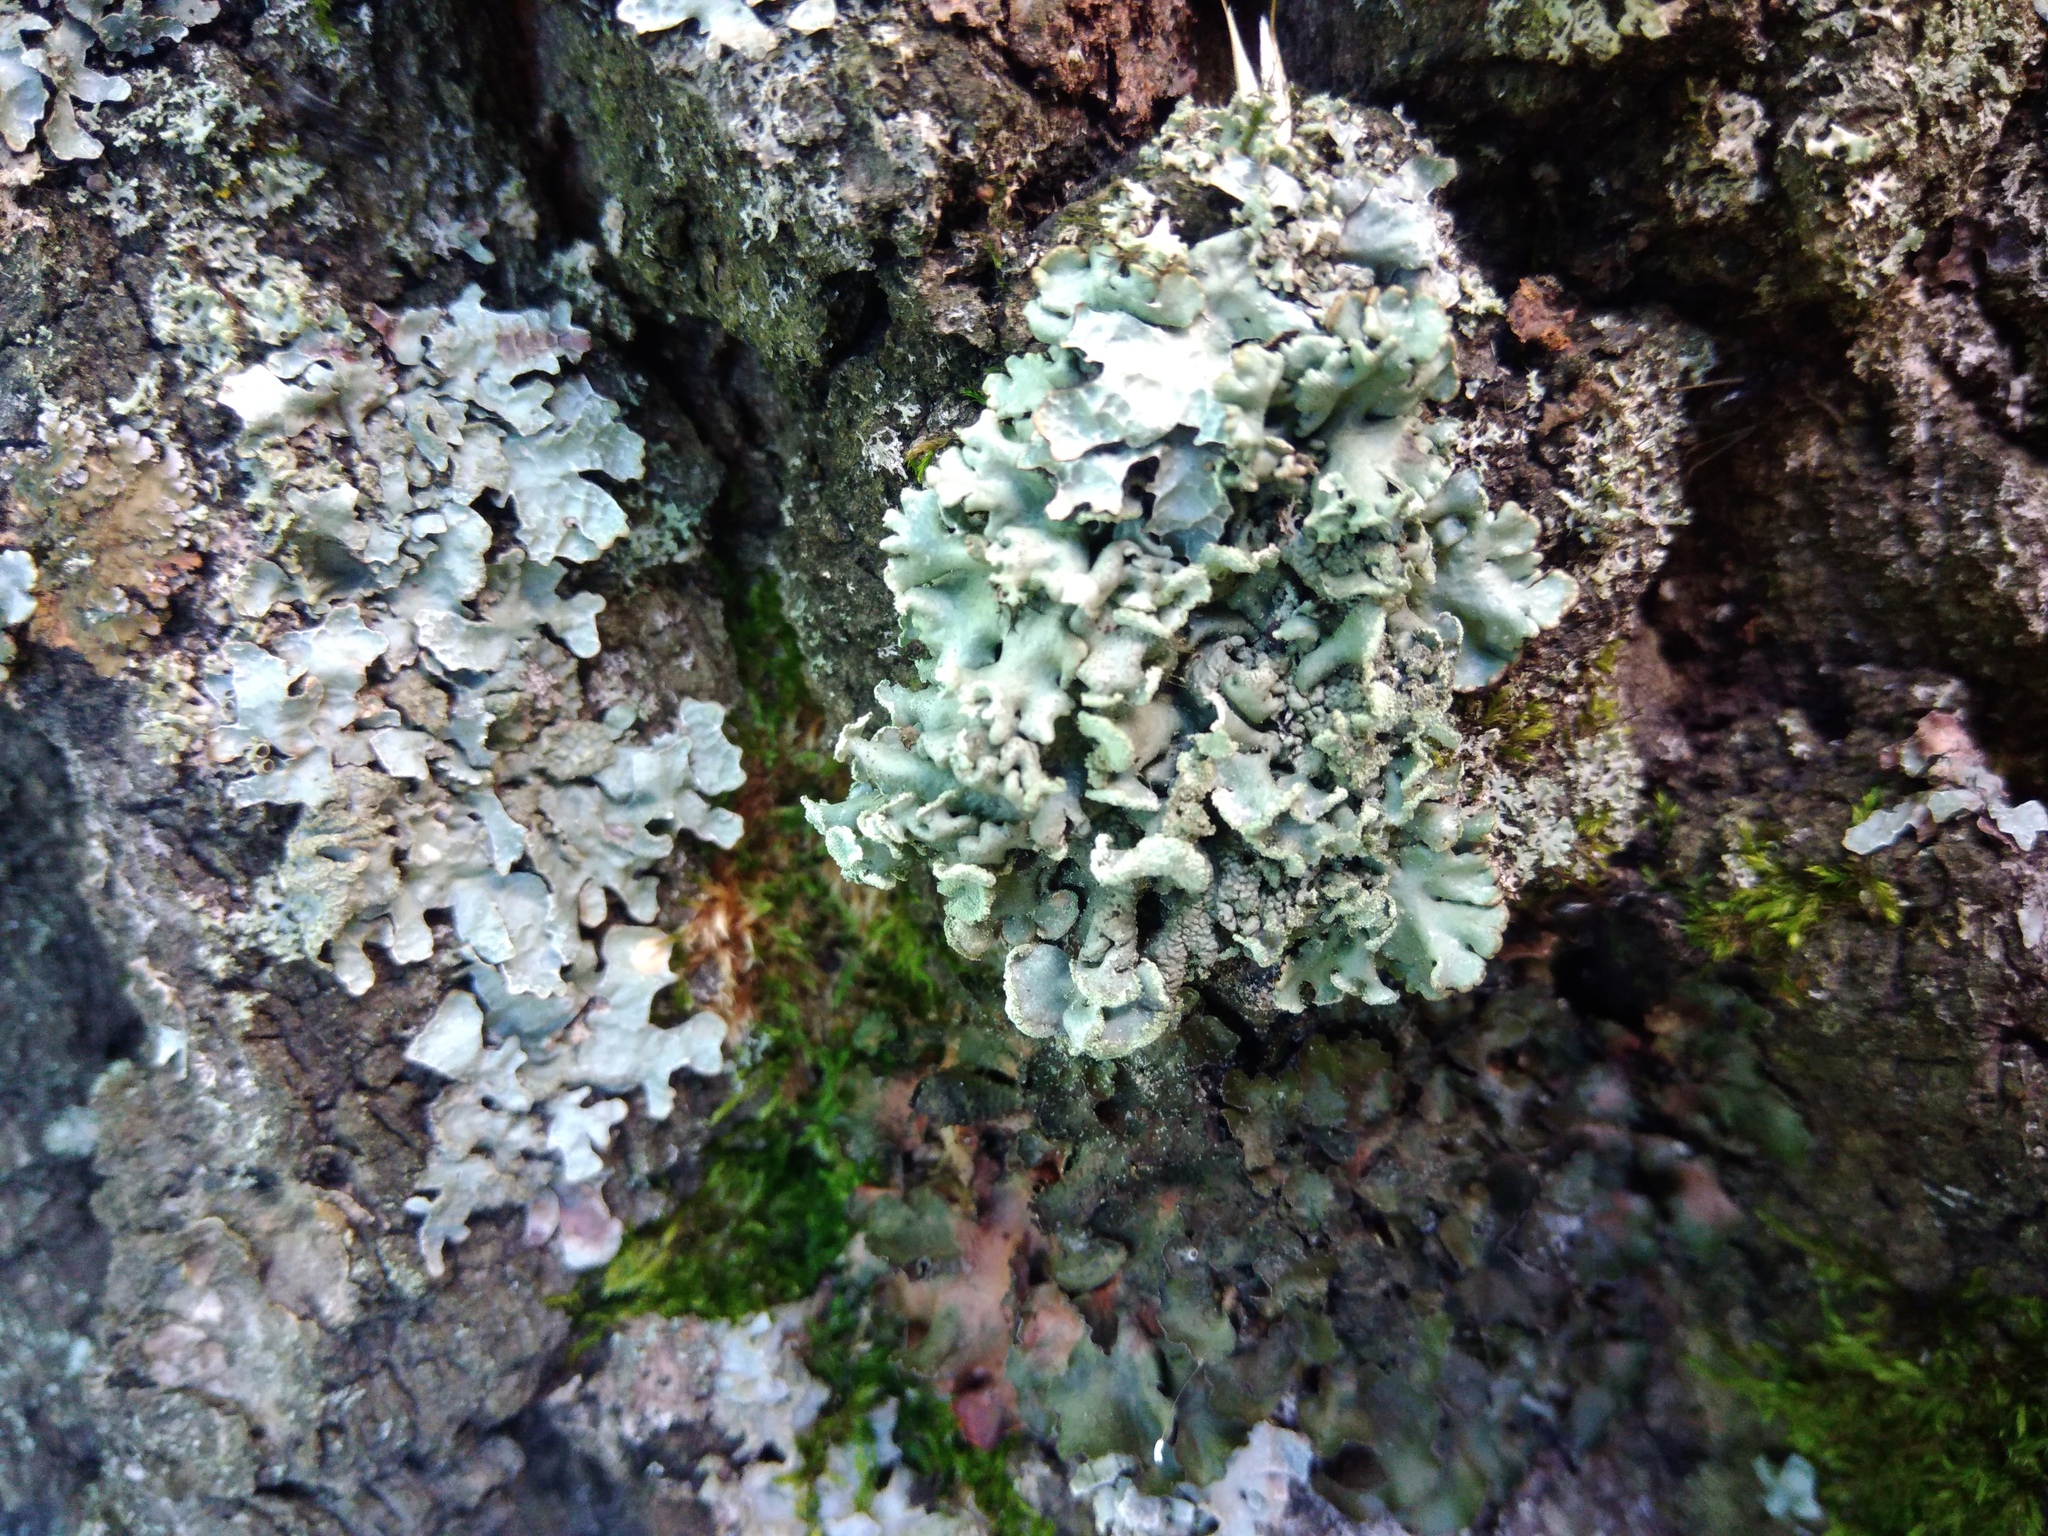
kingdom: Fungi
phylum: Ascomycota
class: Lecanoromycetes
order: Lecanorales
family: Parmeliaceae
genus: Hypogymnia
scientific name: Hypogymnia physodes
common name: Dark crottle
